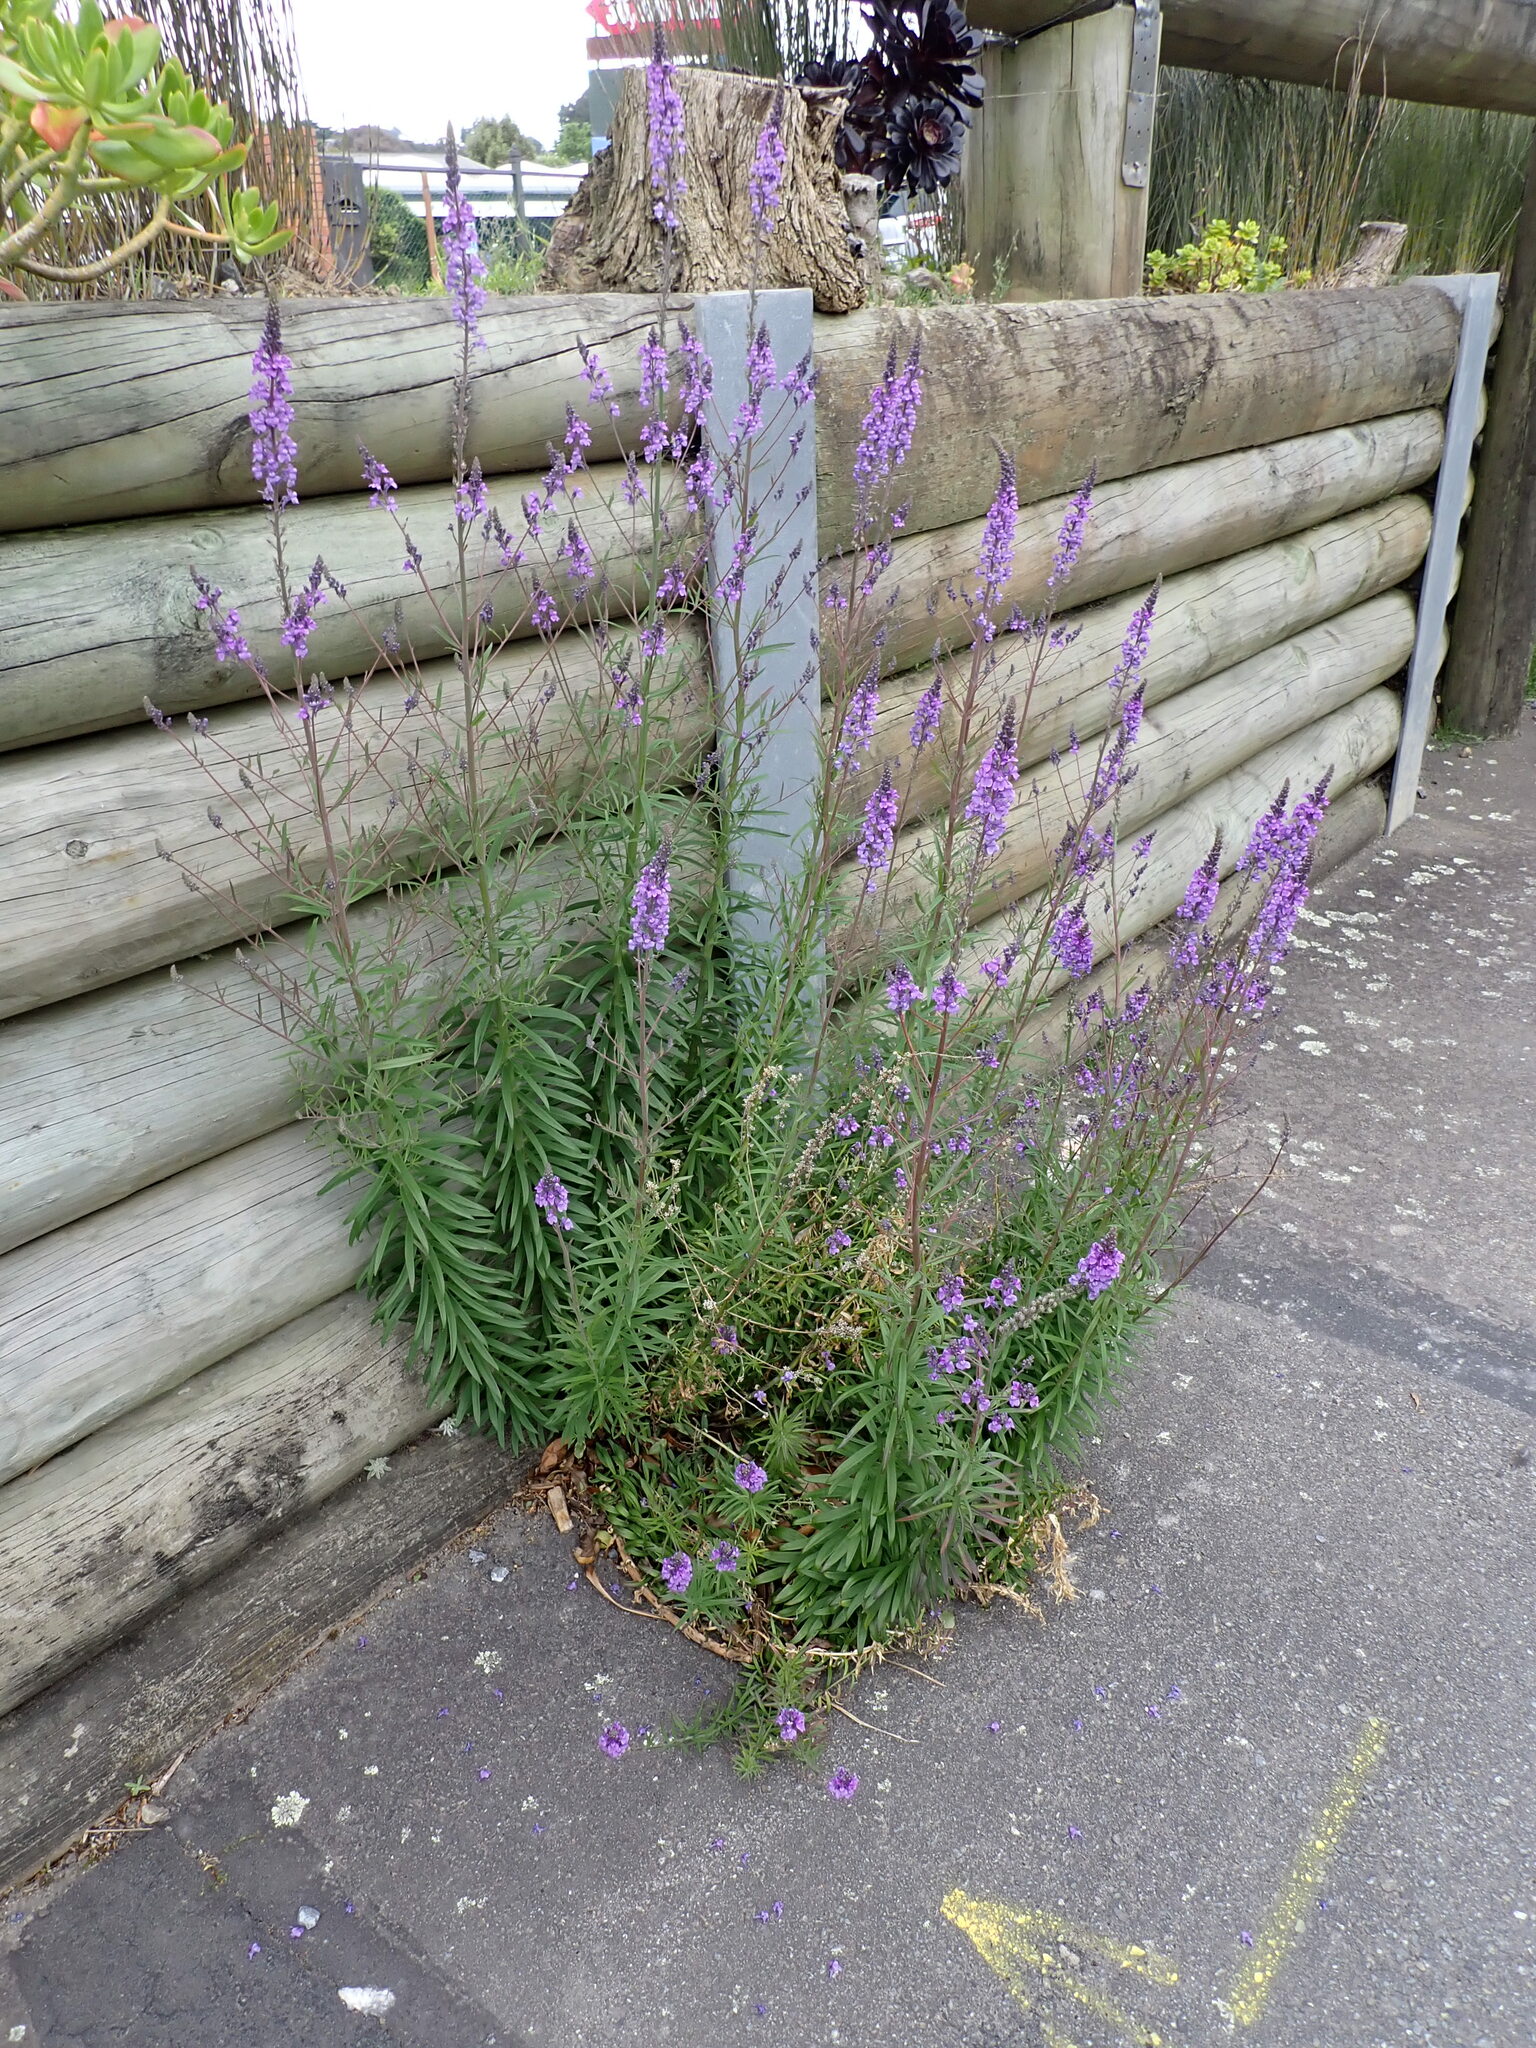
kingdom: Plantae
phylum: Tracheophyta
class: Magnoliopsida
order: Lamiales
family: Plantaginaceae
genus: Linaria
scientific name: Linaria purpurea
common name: Purple toadflax
